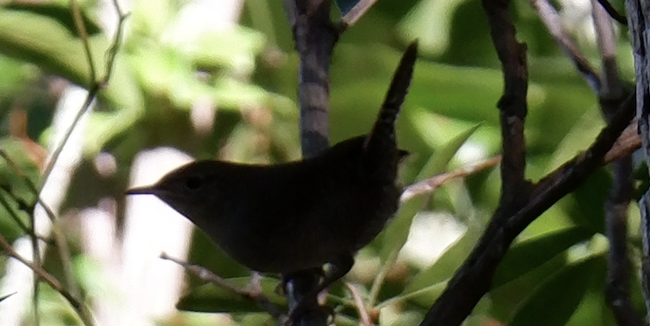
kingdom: Animalia
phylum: Chordata
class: Aves
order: Passeriformes
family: Troglodytidae
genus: Troglodytes
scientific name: Troglodytes aedon
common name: House wren
